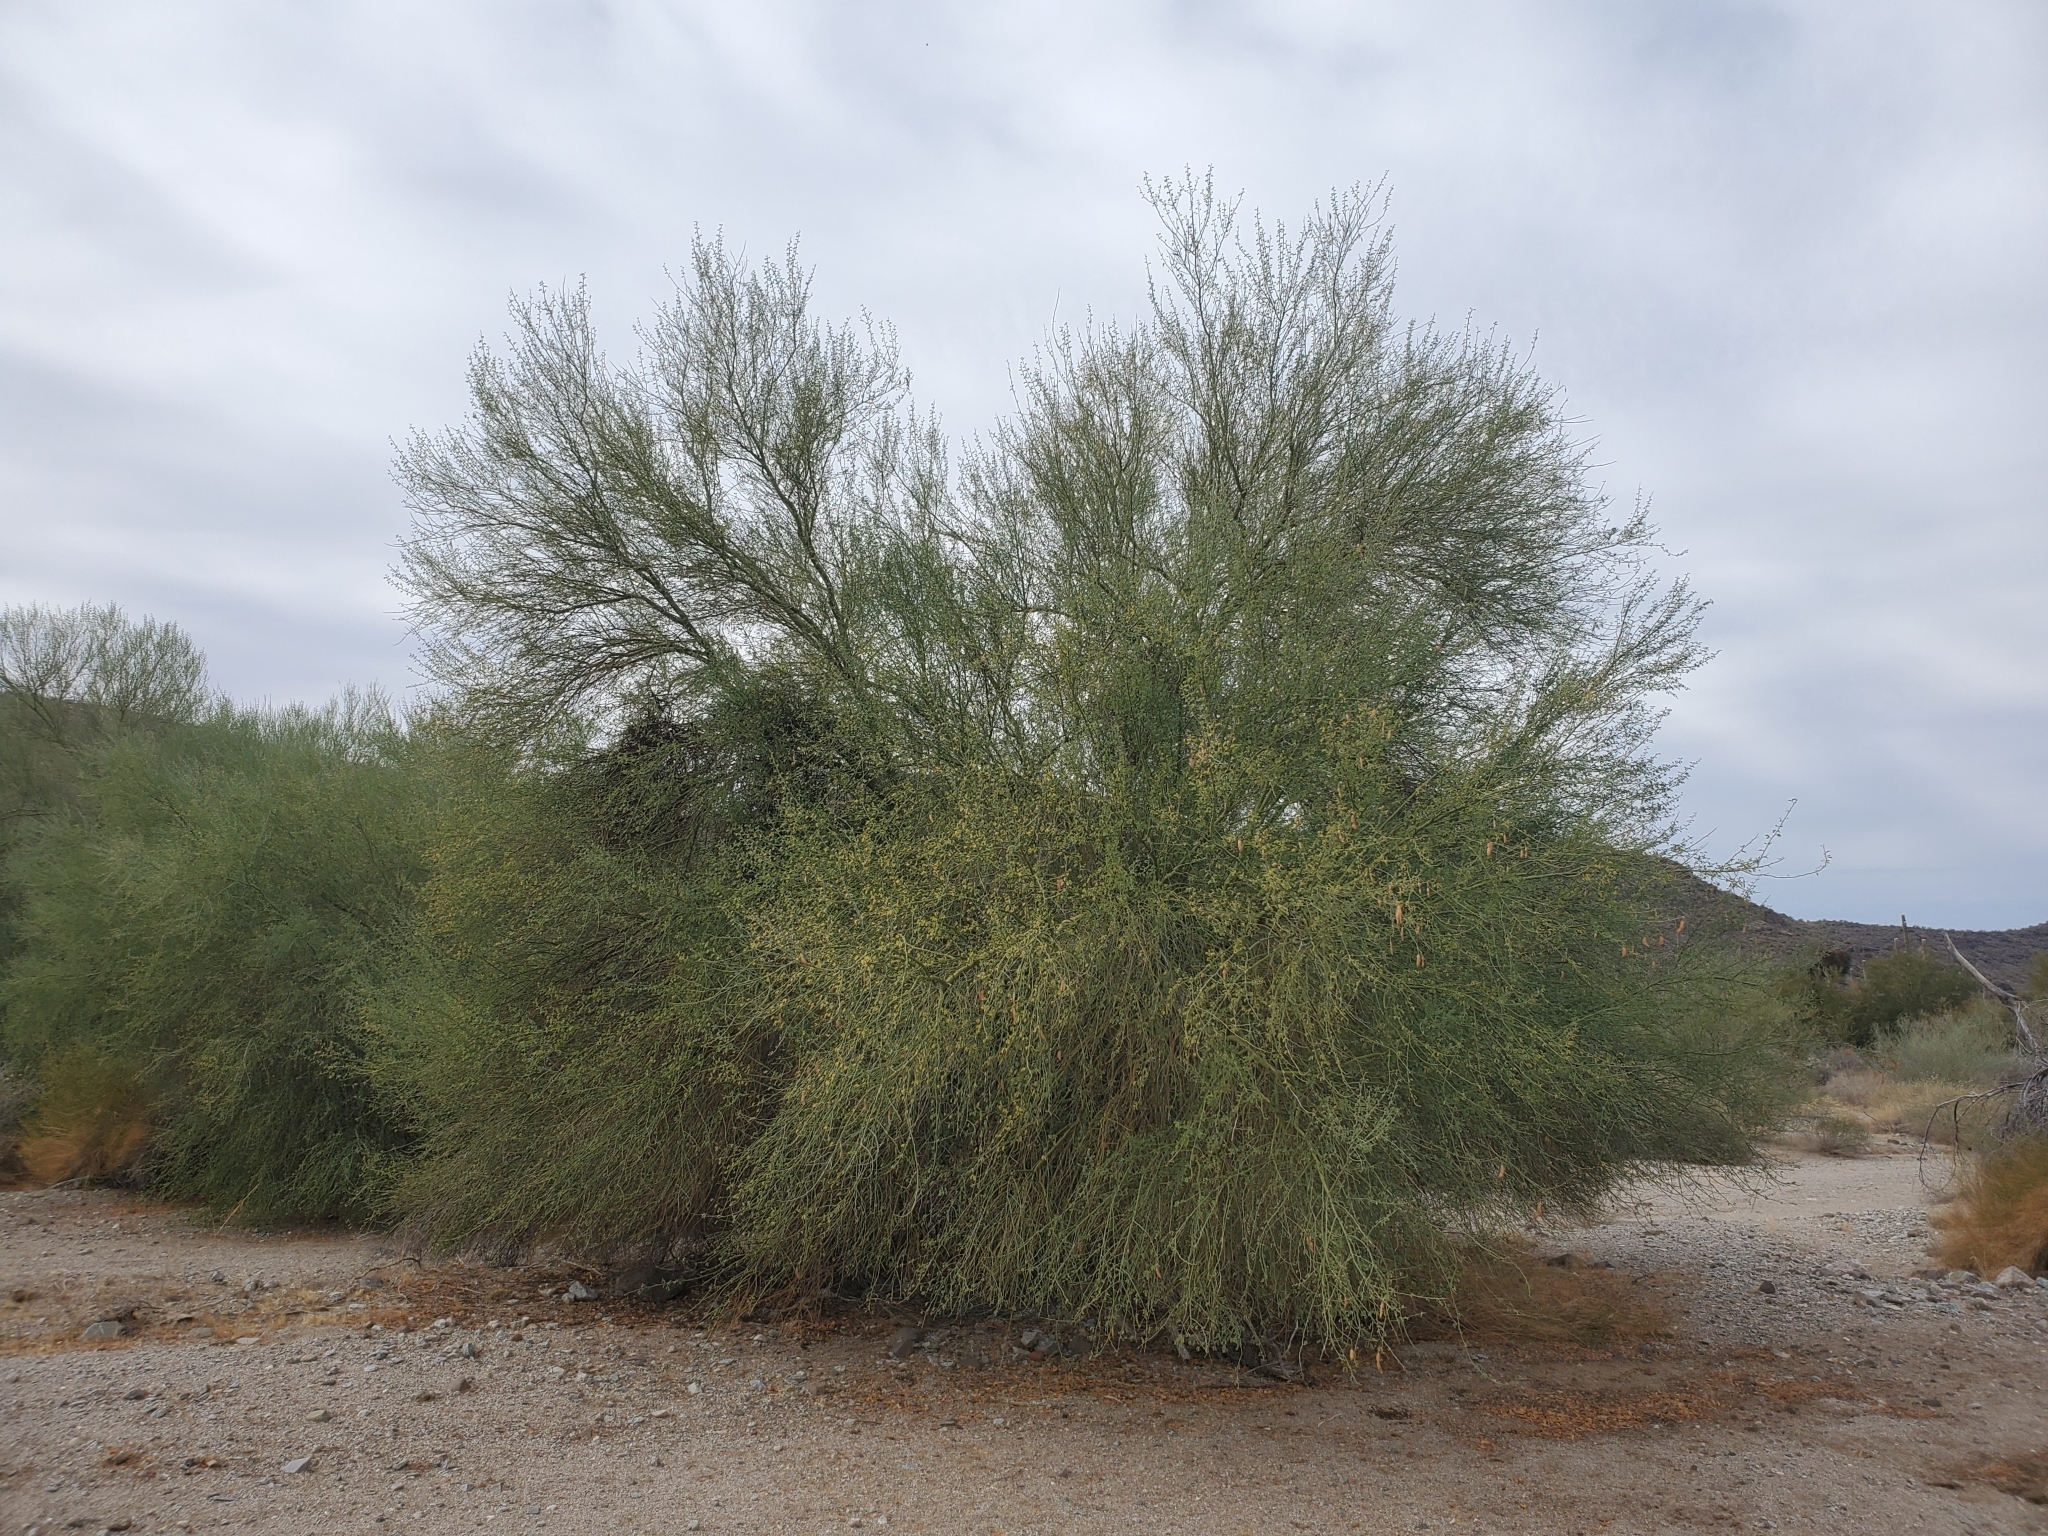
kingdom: Plantae
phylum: Tracheophyta
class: Magnoliopsida
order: Fabales
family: Fabaceae
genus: Parkinsonia
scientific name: Parkinsonia florida
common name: Blue paloverde
